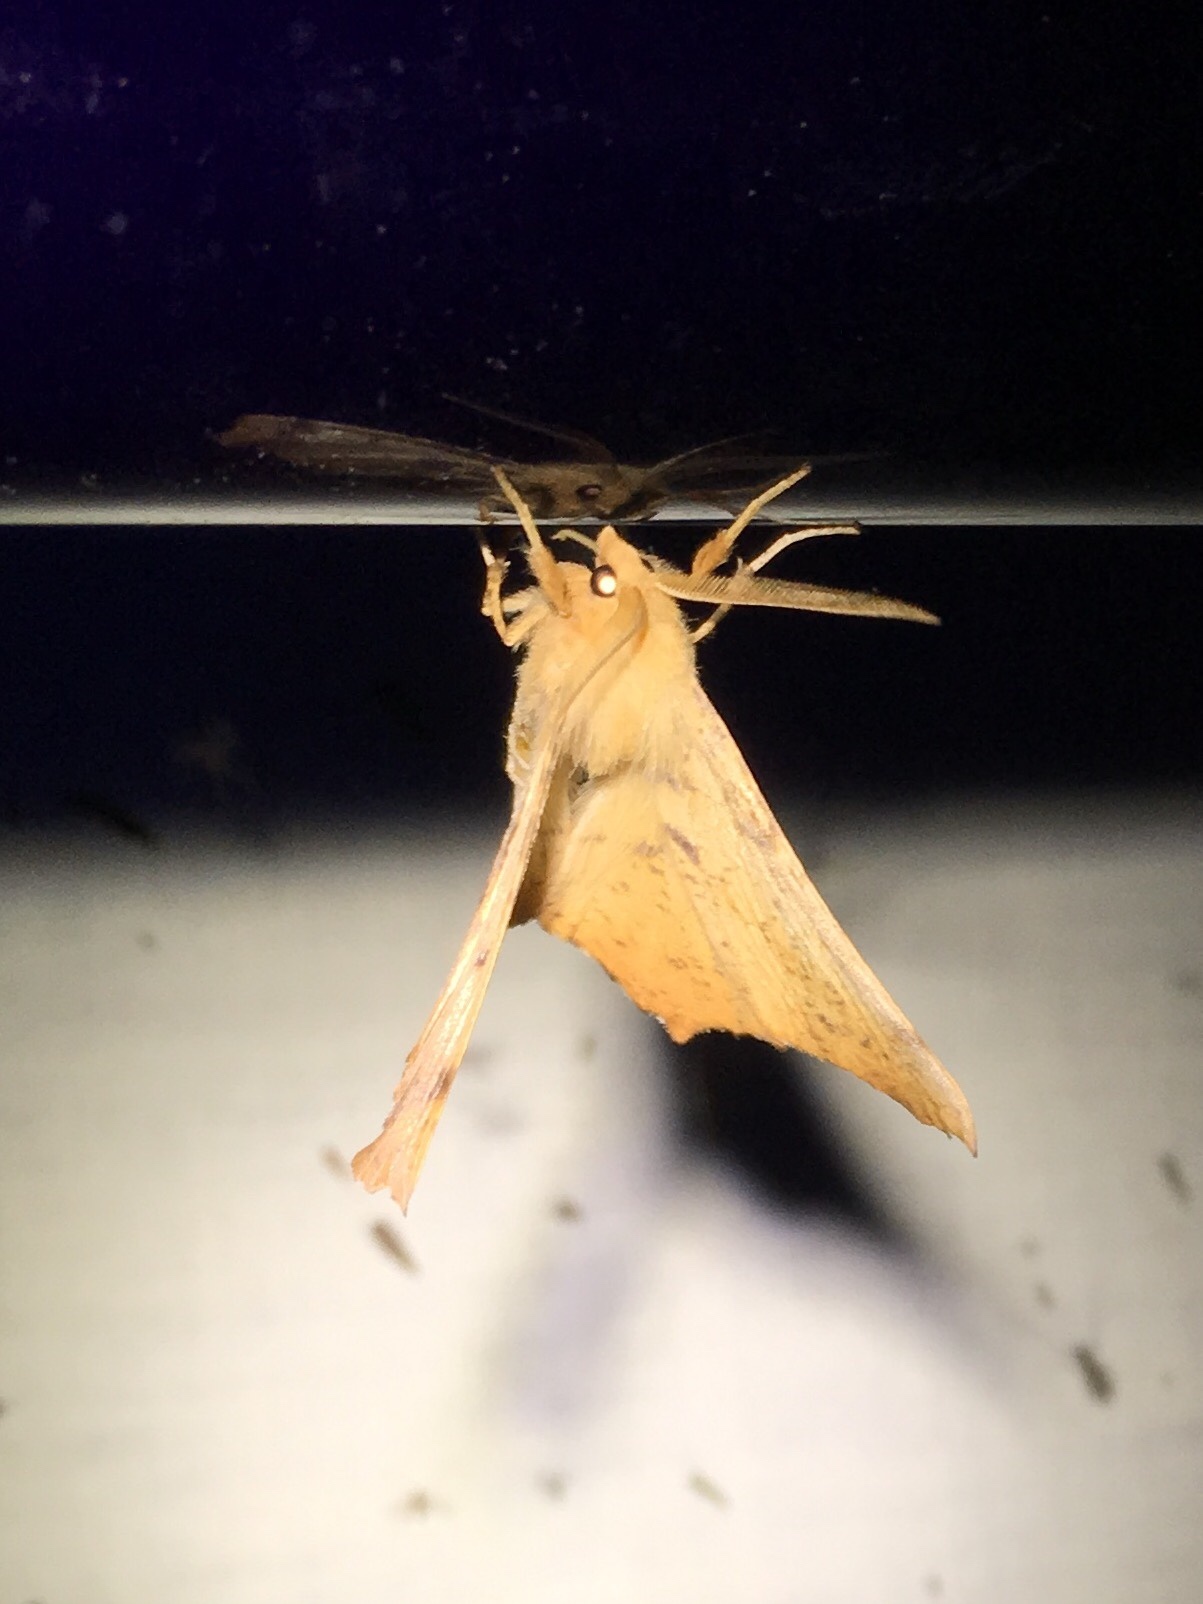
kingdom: Animalia
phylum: Arthropoda
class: Insecta
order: Lepidoptera
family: Geometridae
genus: Ennomos
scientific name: Ennomos magnaria
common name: Maple spanworm
